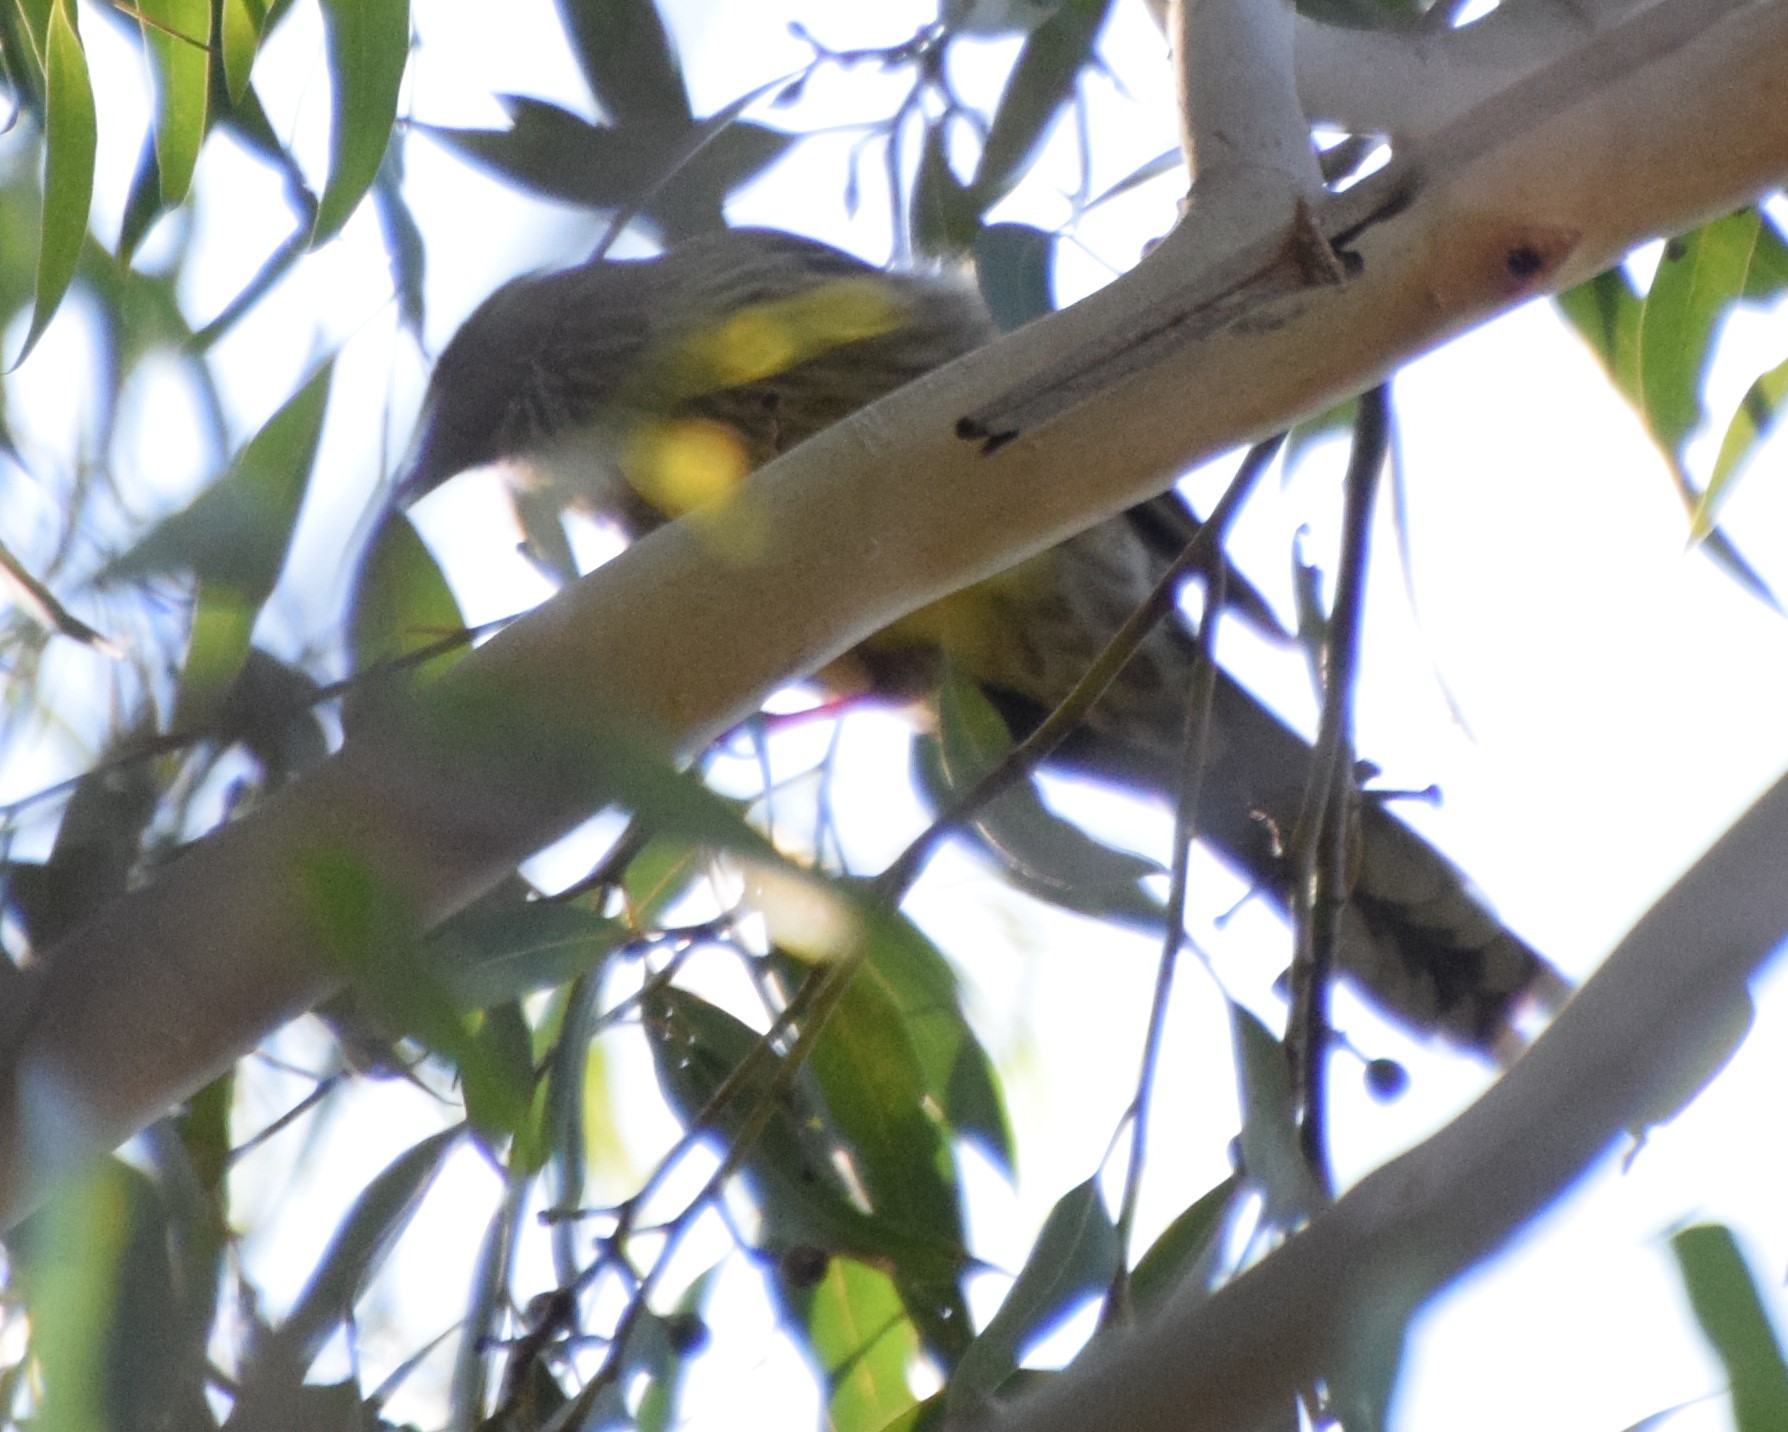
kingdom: Animalia
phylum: Chordata
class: Aves
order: Passeriformes
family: Meliphagidae
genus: Anthochaera
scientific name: Anthochaera chrysoptera
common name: Little wattlebird
